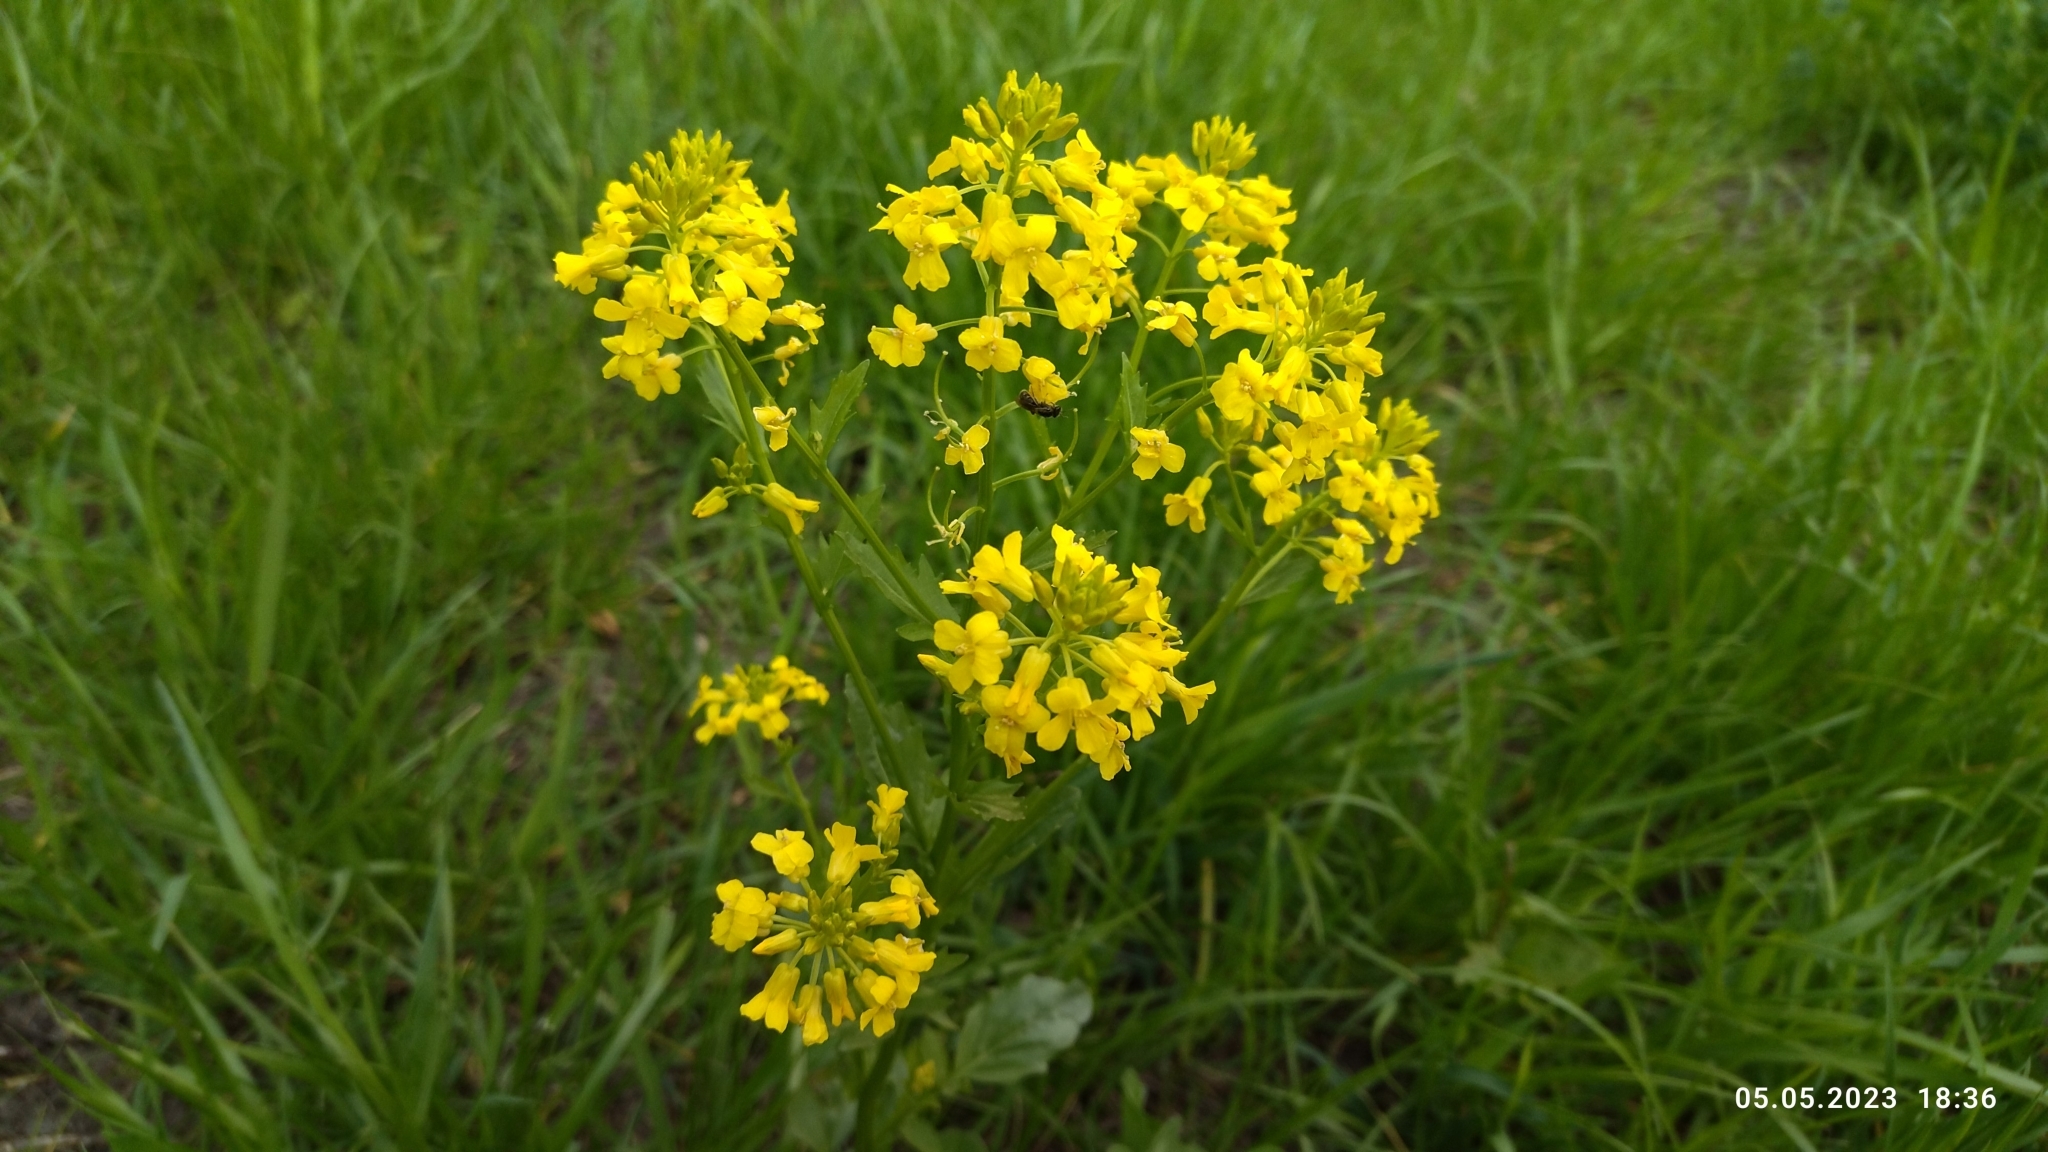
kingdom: Plantae
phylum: Tracheophyta
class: Magnoliopsida
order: Brassicales
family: Brassicaceae
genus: Barbarea
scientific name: Barbarea vulgaris
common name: Cressy-greens
